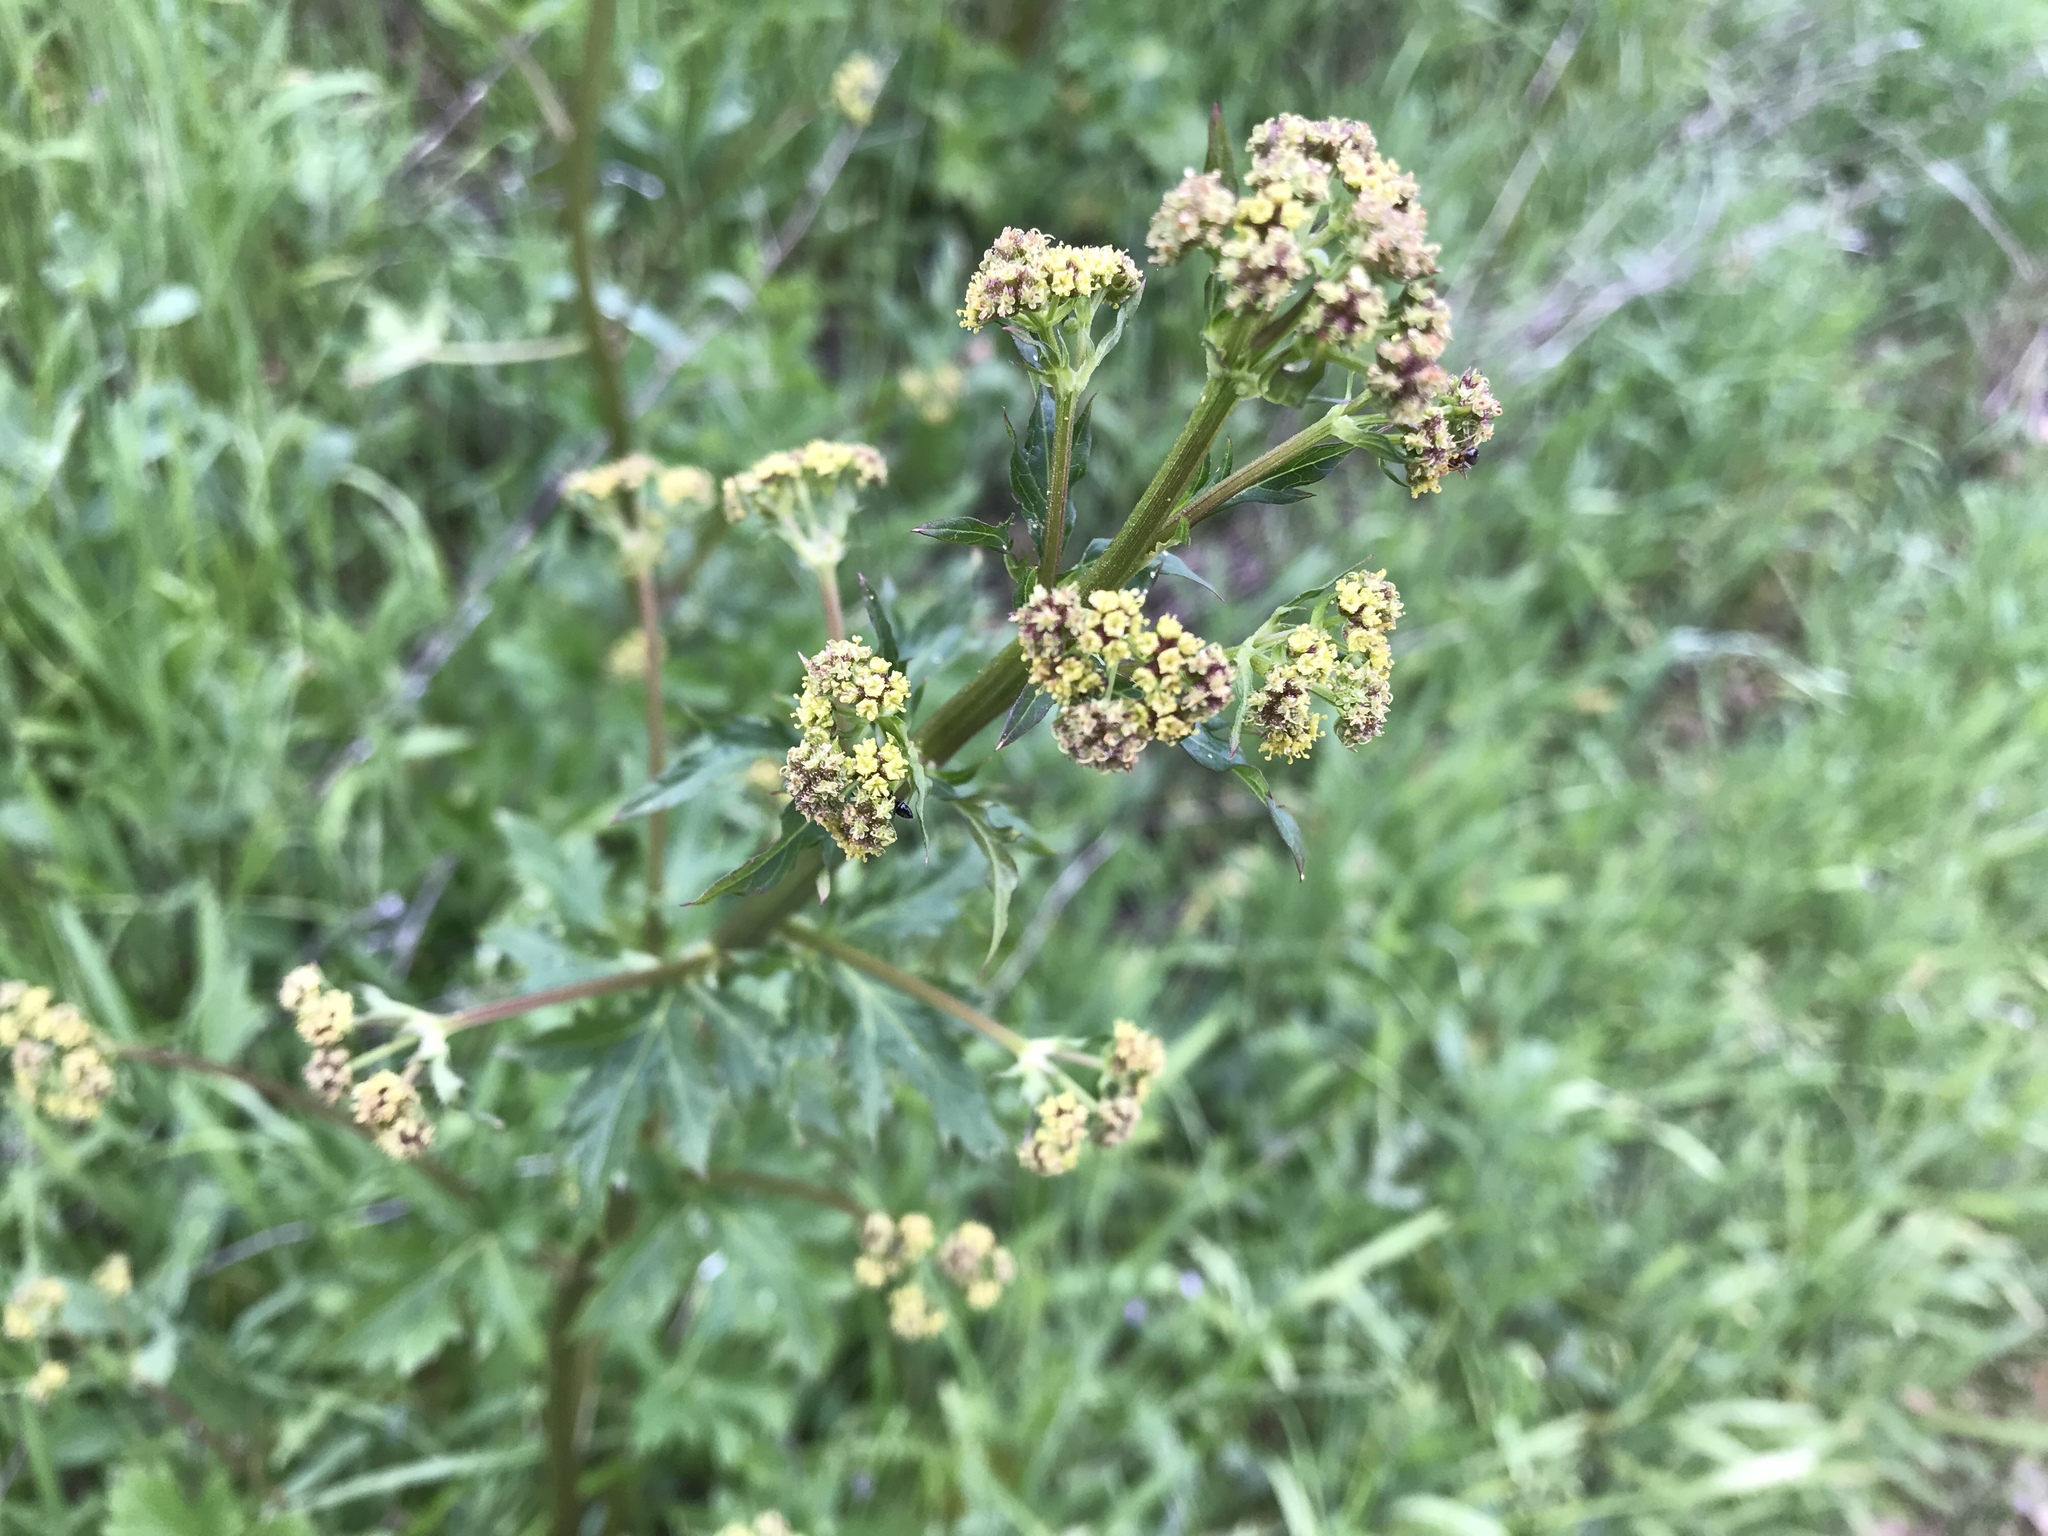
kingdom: Plantae
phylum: Tracheophyta
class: Magnoliopsida
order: Apiales
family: Apiaceae
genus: Sanicula
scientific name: Sanicula crassicaulis
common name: Western snakeroot
